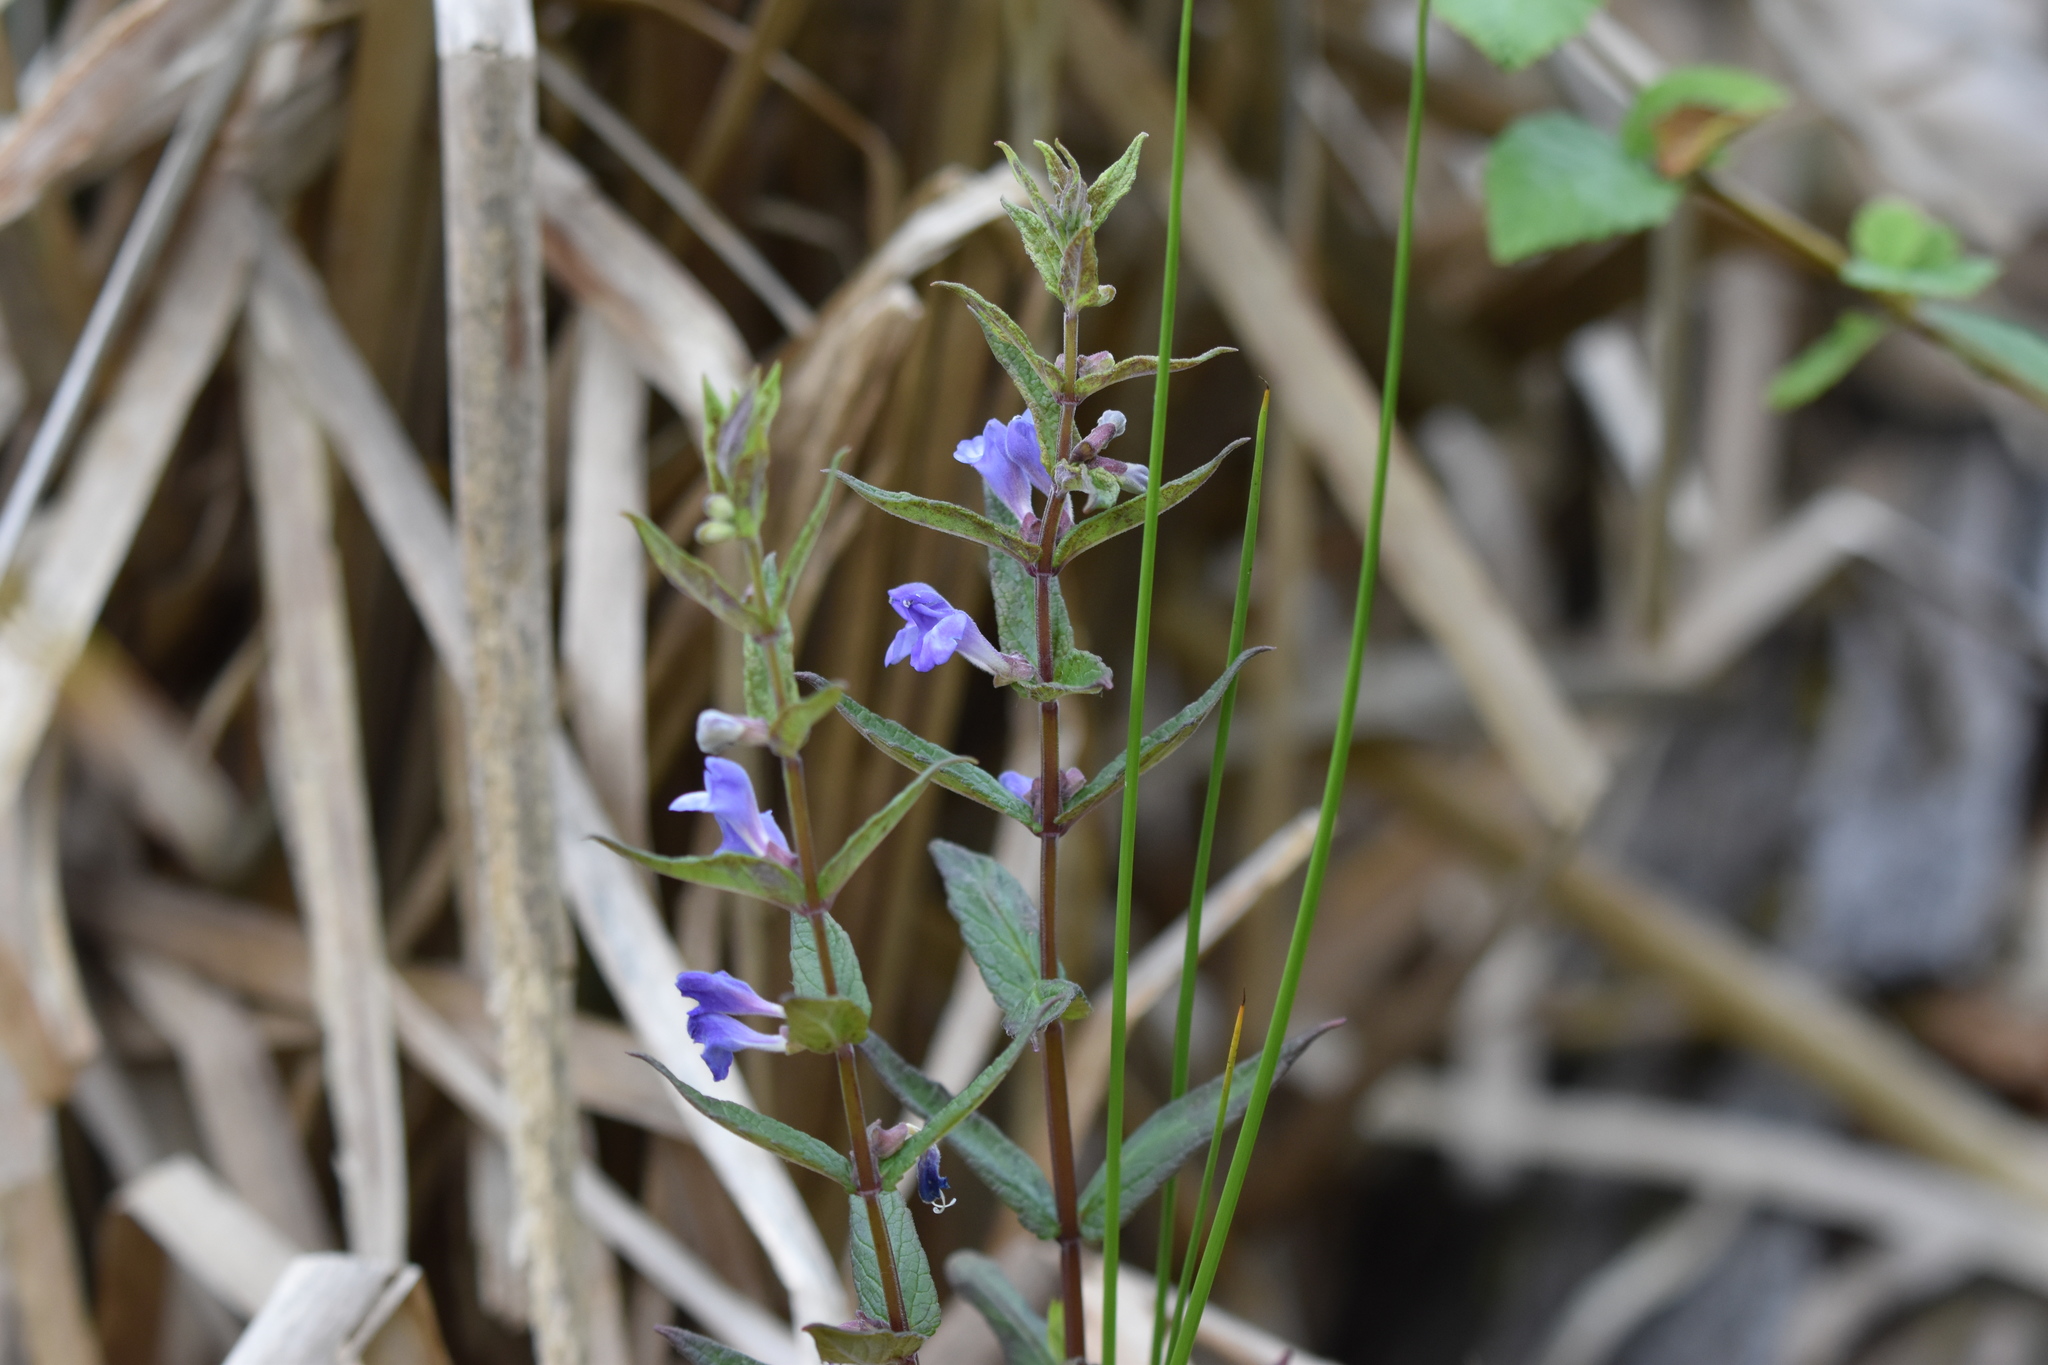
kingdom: Plantae
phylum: Tracheophyta
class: Magnoliopsida
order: Lamiales
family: Lamiaceae
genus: Scutellaria
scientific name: Scutellaria galericulata
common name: Skullcap
